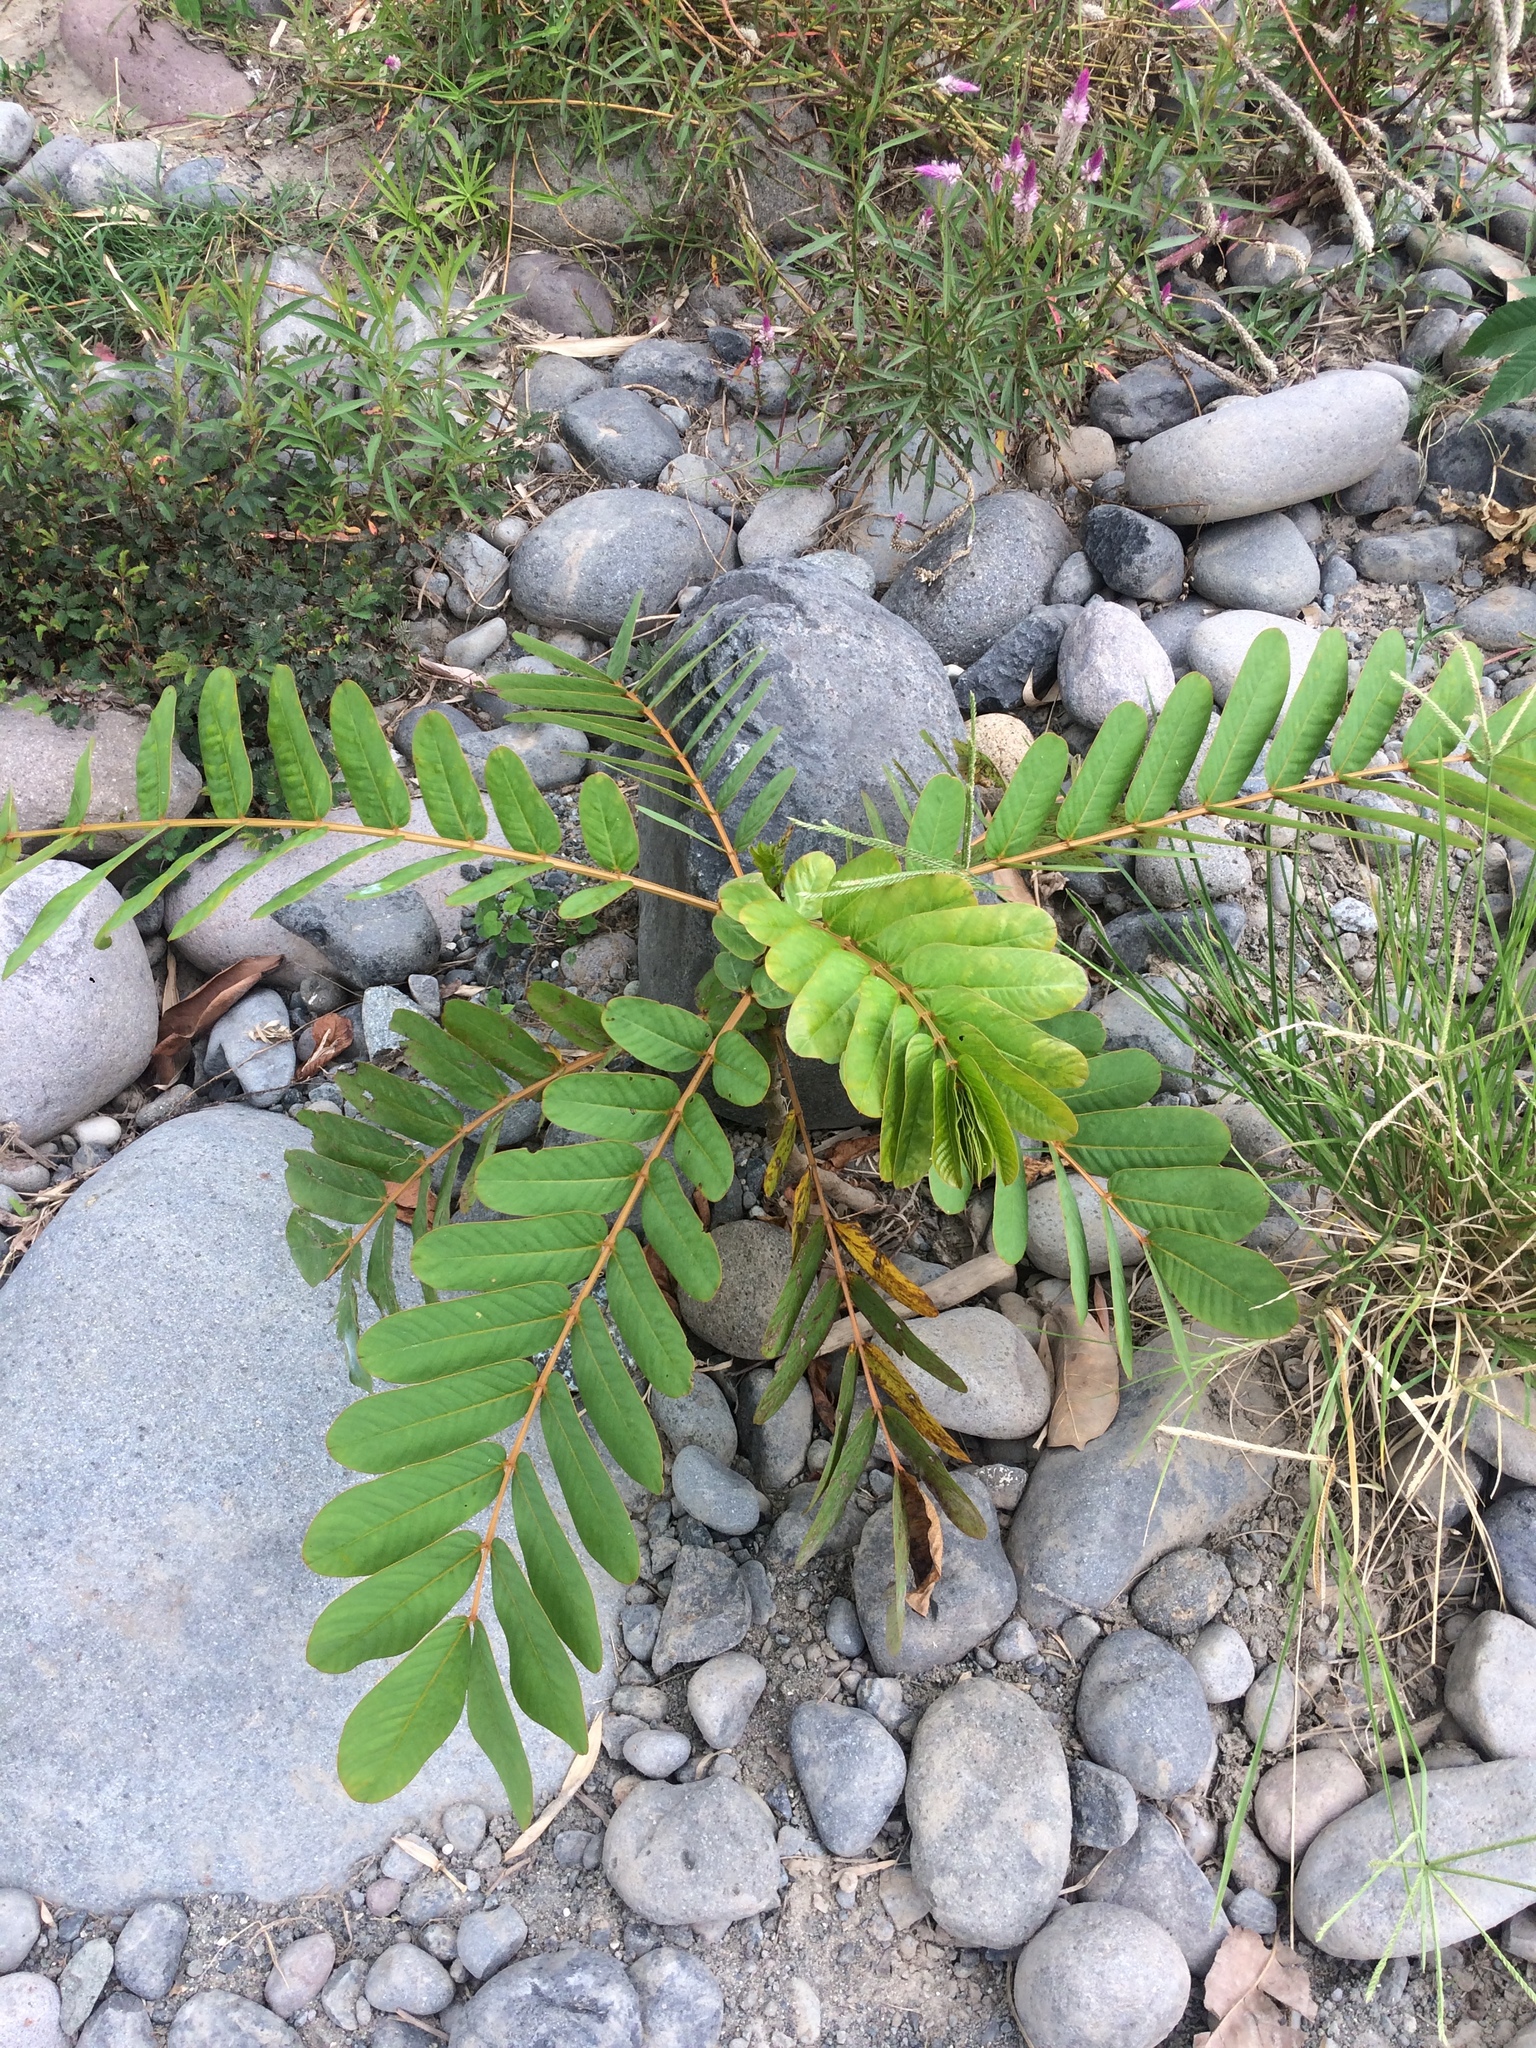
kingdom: Plantae
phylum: Tracheophyta
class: Magnoliopsida
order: Fabales
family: Fabaceae
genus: Senna
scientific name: Senna alata
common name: Emperor's candlesticks
